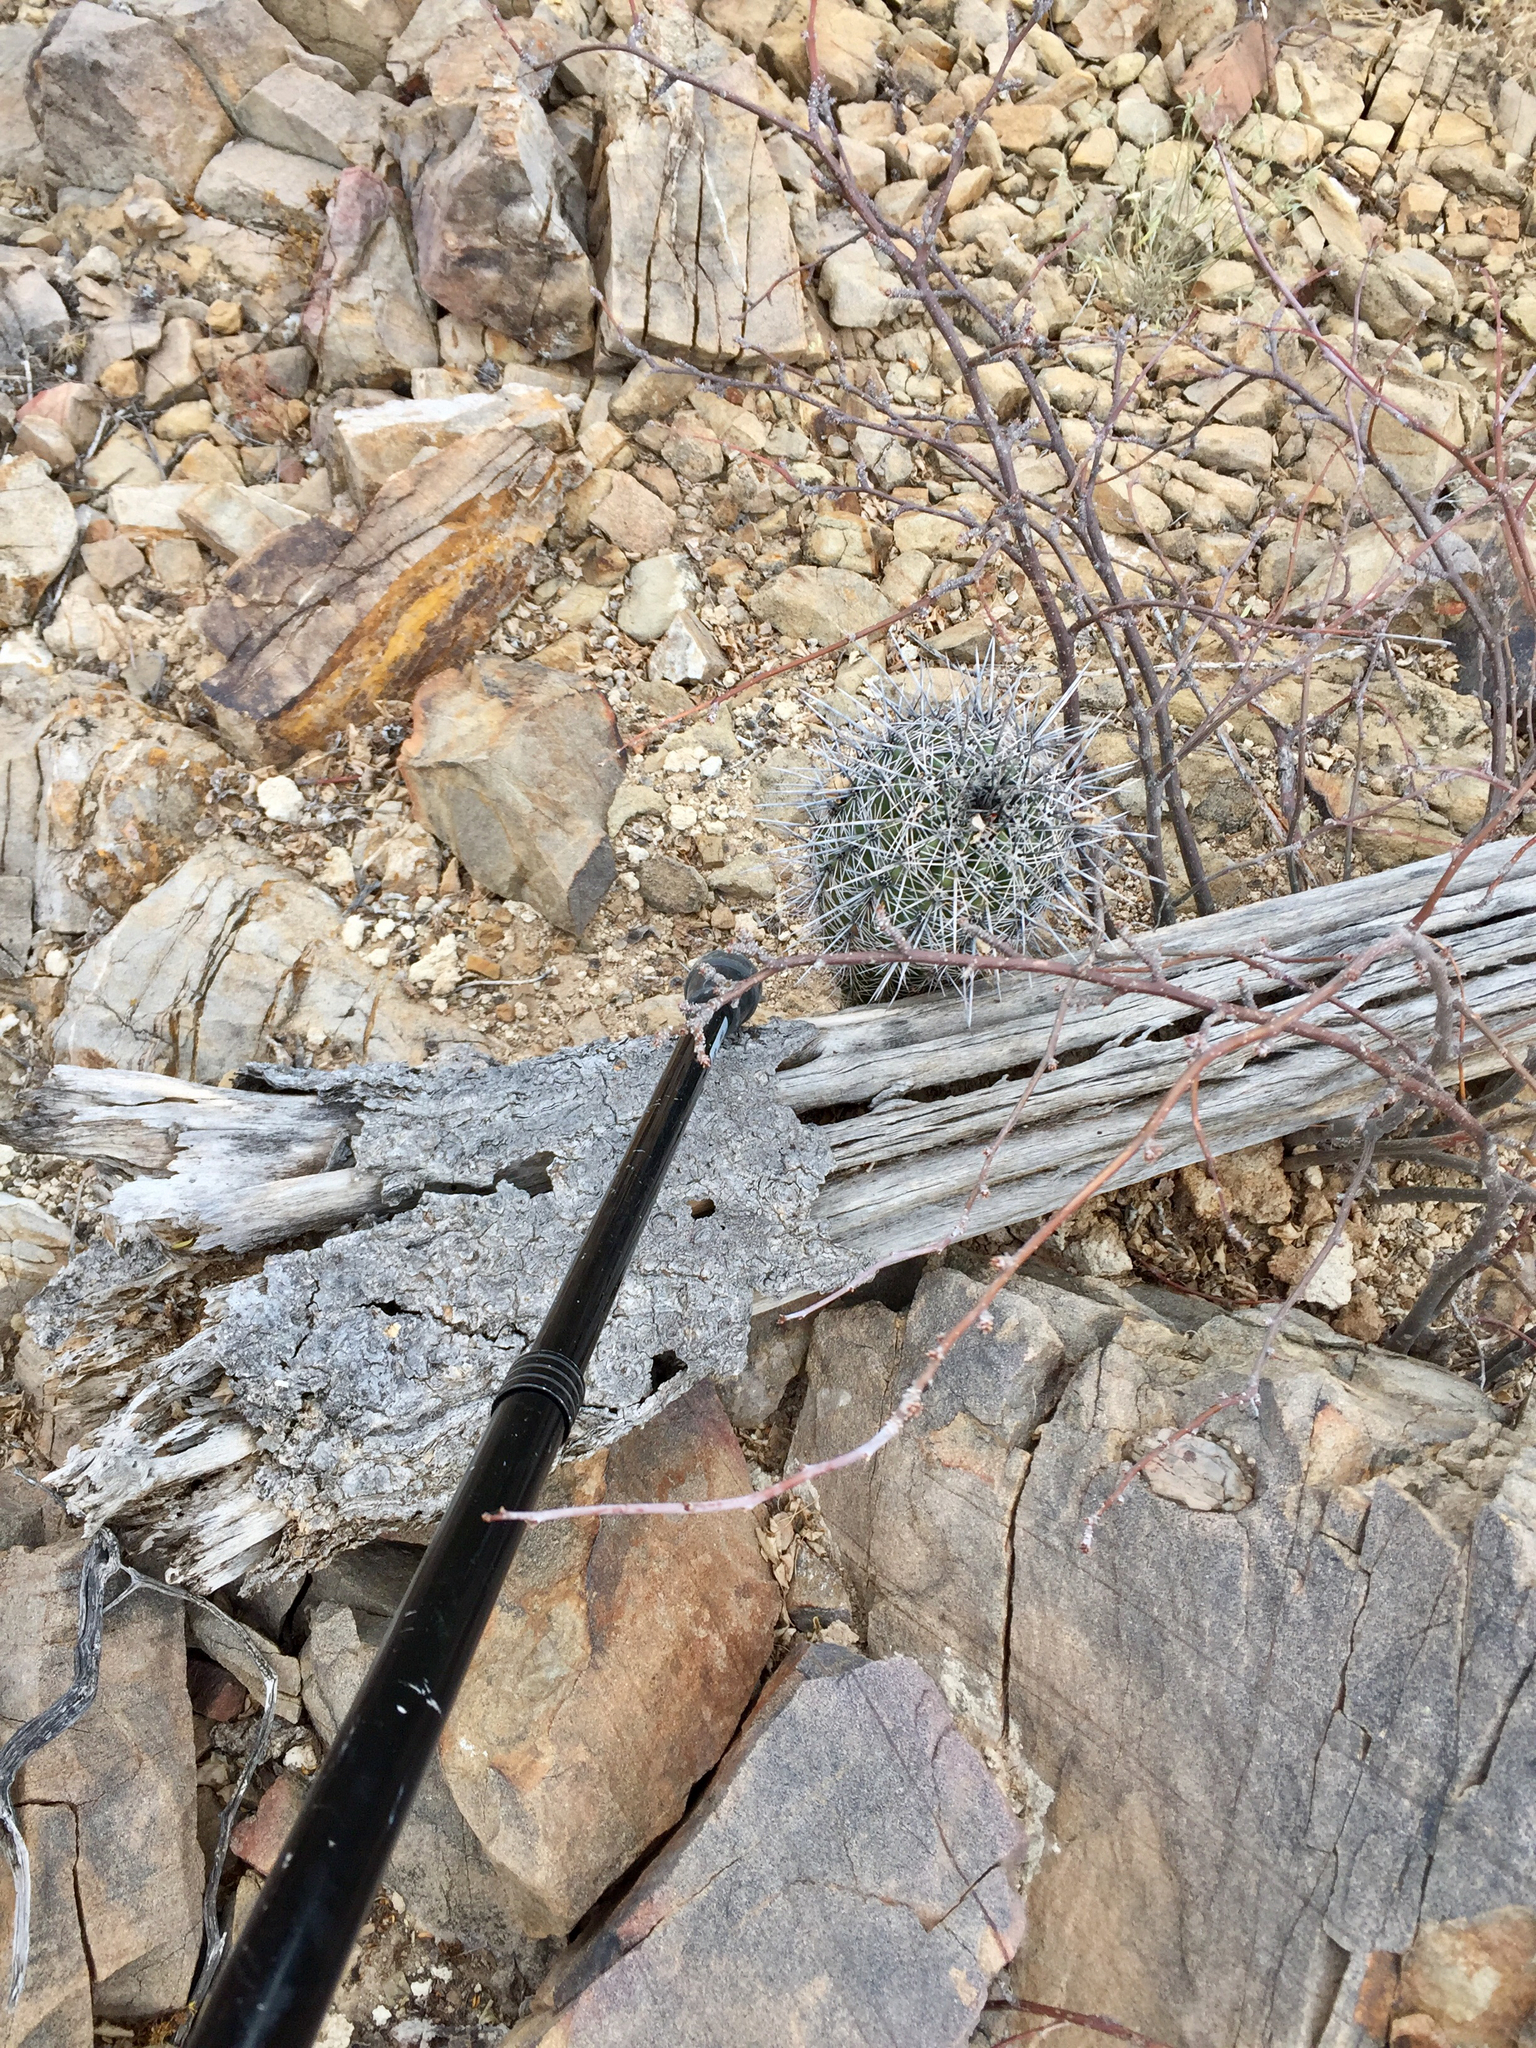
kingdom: Plantae
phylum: Tracheophyta
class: Magnoliopsida
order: Caryophyllales
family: Cactaceae
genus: Carnegiea
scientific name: Carnegiea gigantea
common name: Saguaro
